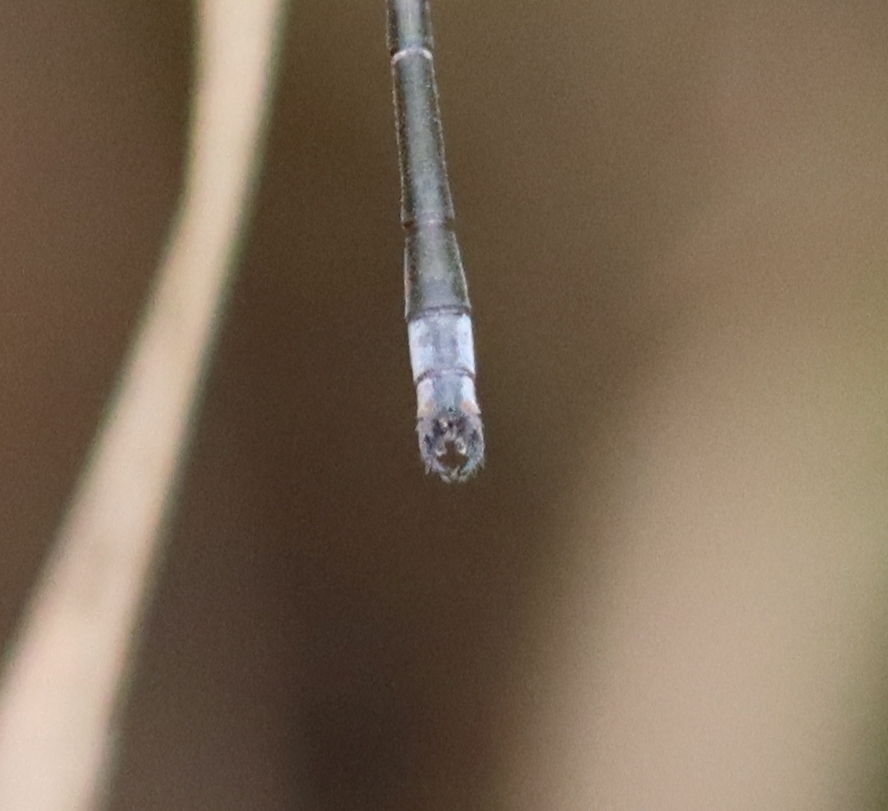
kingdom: Animalia
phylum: Arthropoda
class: Insecta
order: Odonata
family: Lestidae
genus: Lestes
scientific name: Lestes congener
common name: Spotted spreadwing
